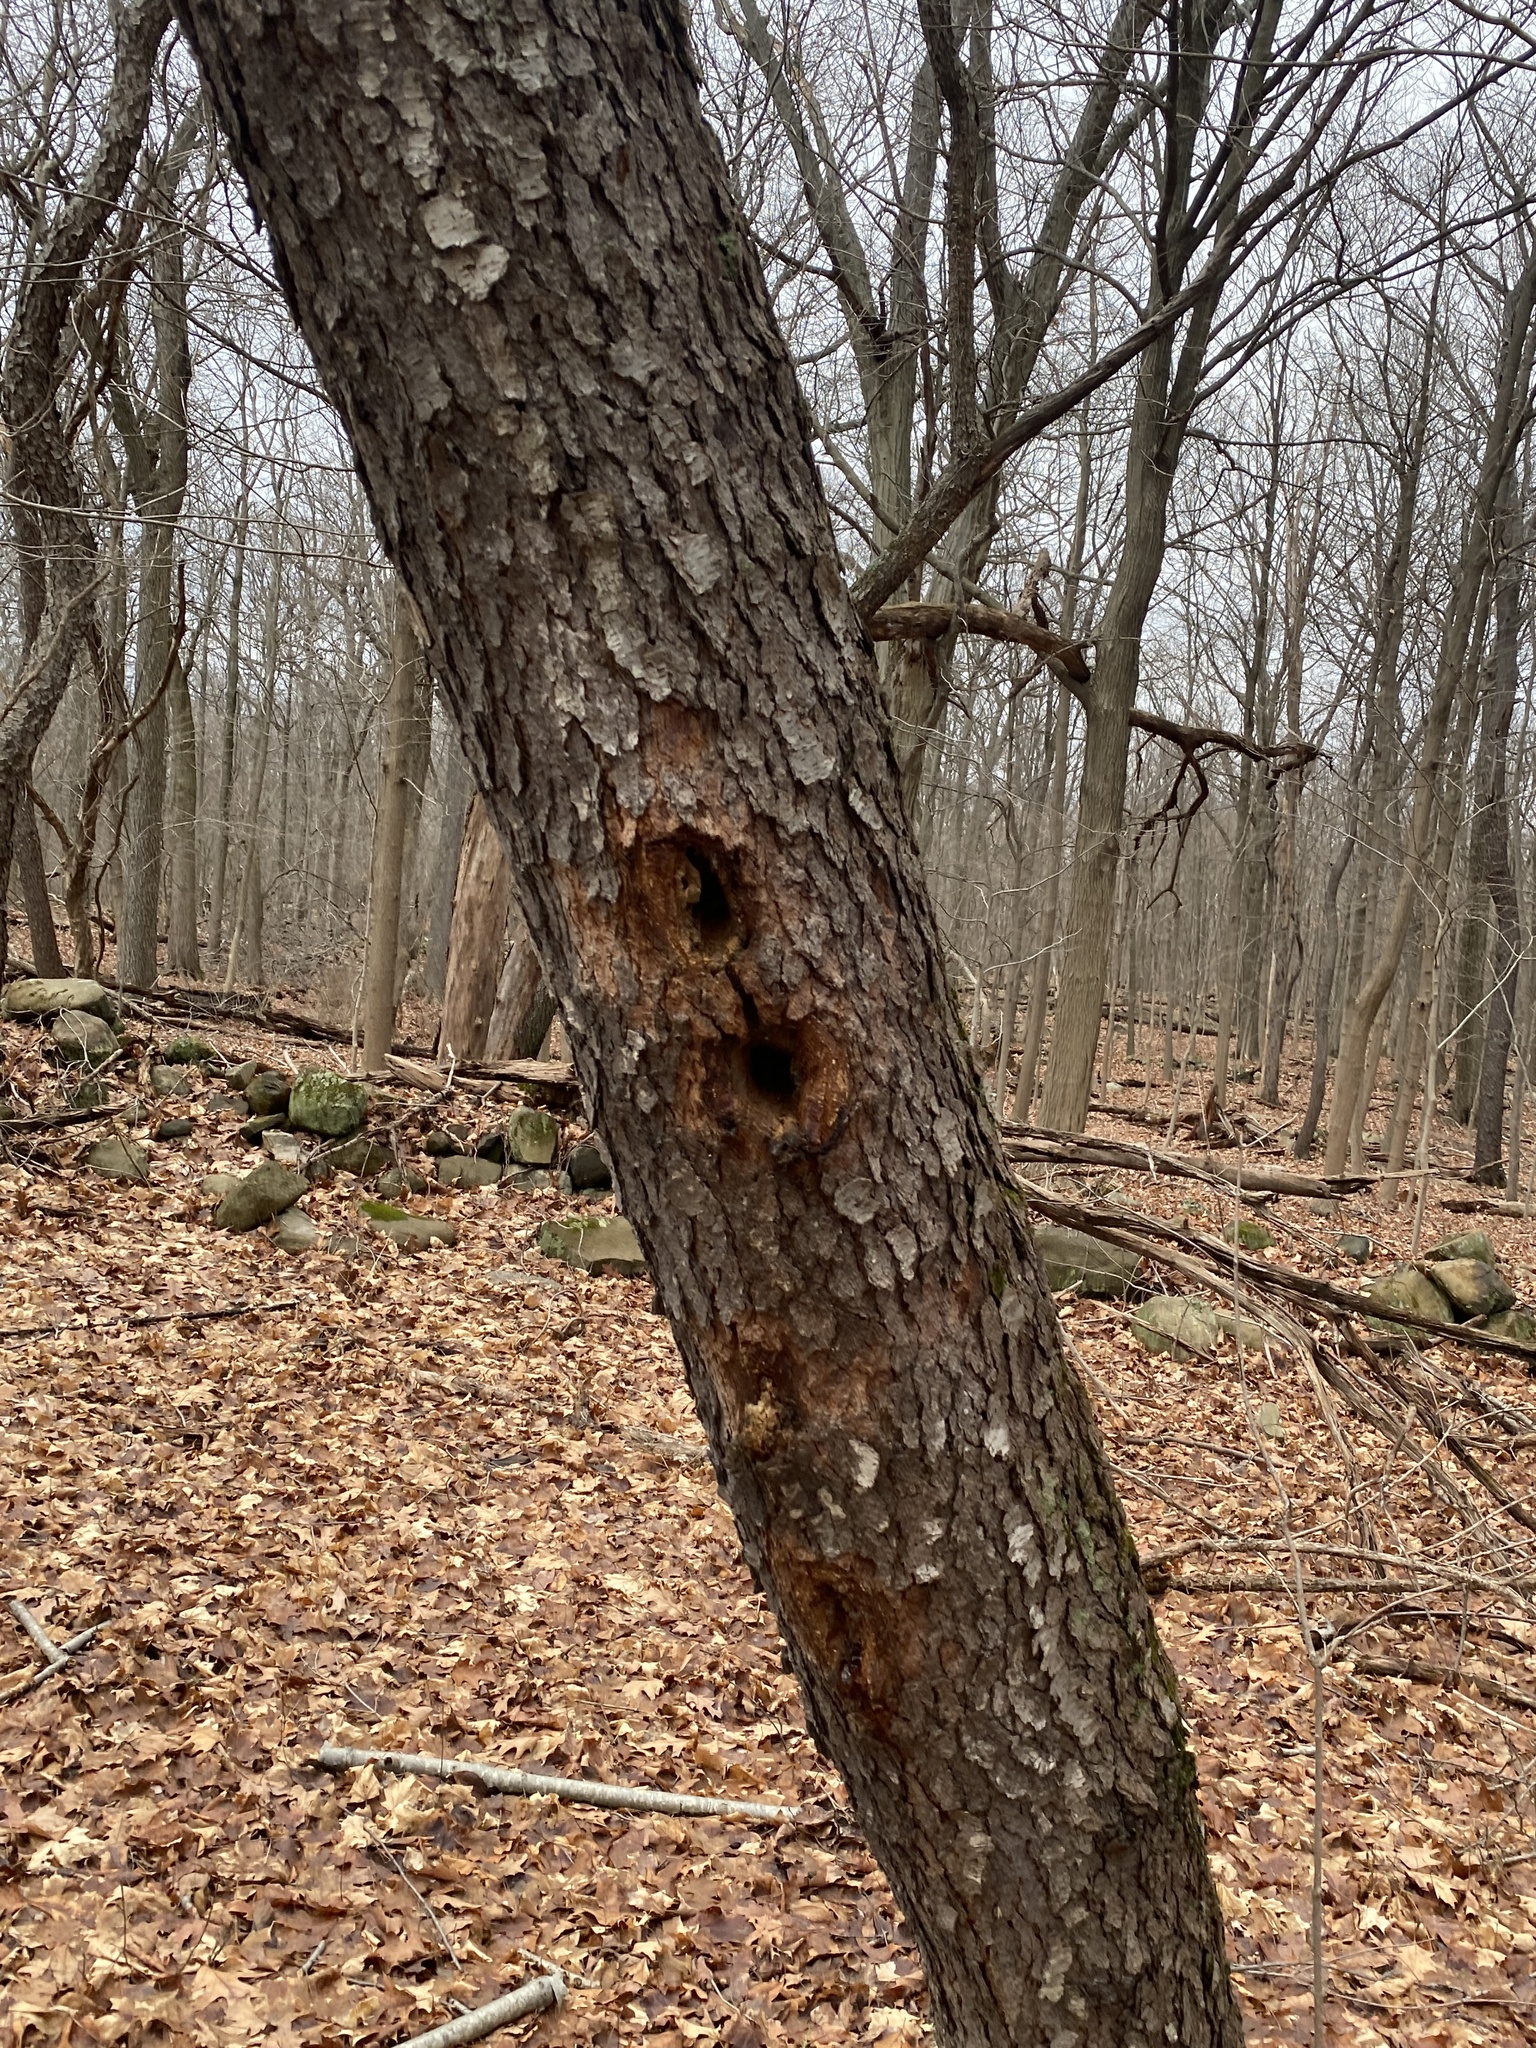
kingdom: Animalia
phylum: Chordata
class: Aves
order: Piciformes
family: Picidae
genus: Dryocopus
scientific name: Dryocopus pileatus
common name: Pileated woodpecker
